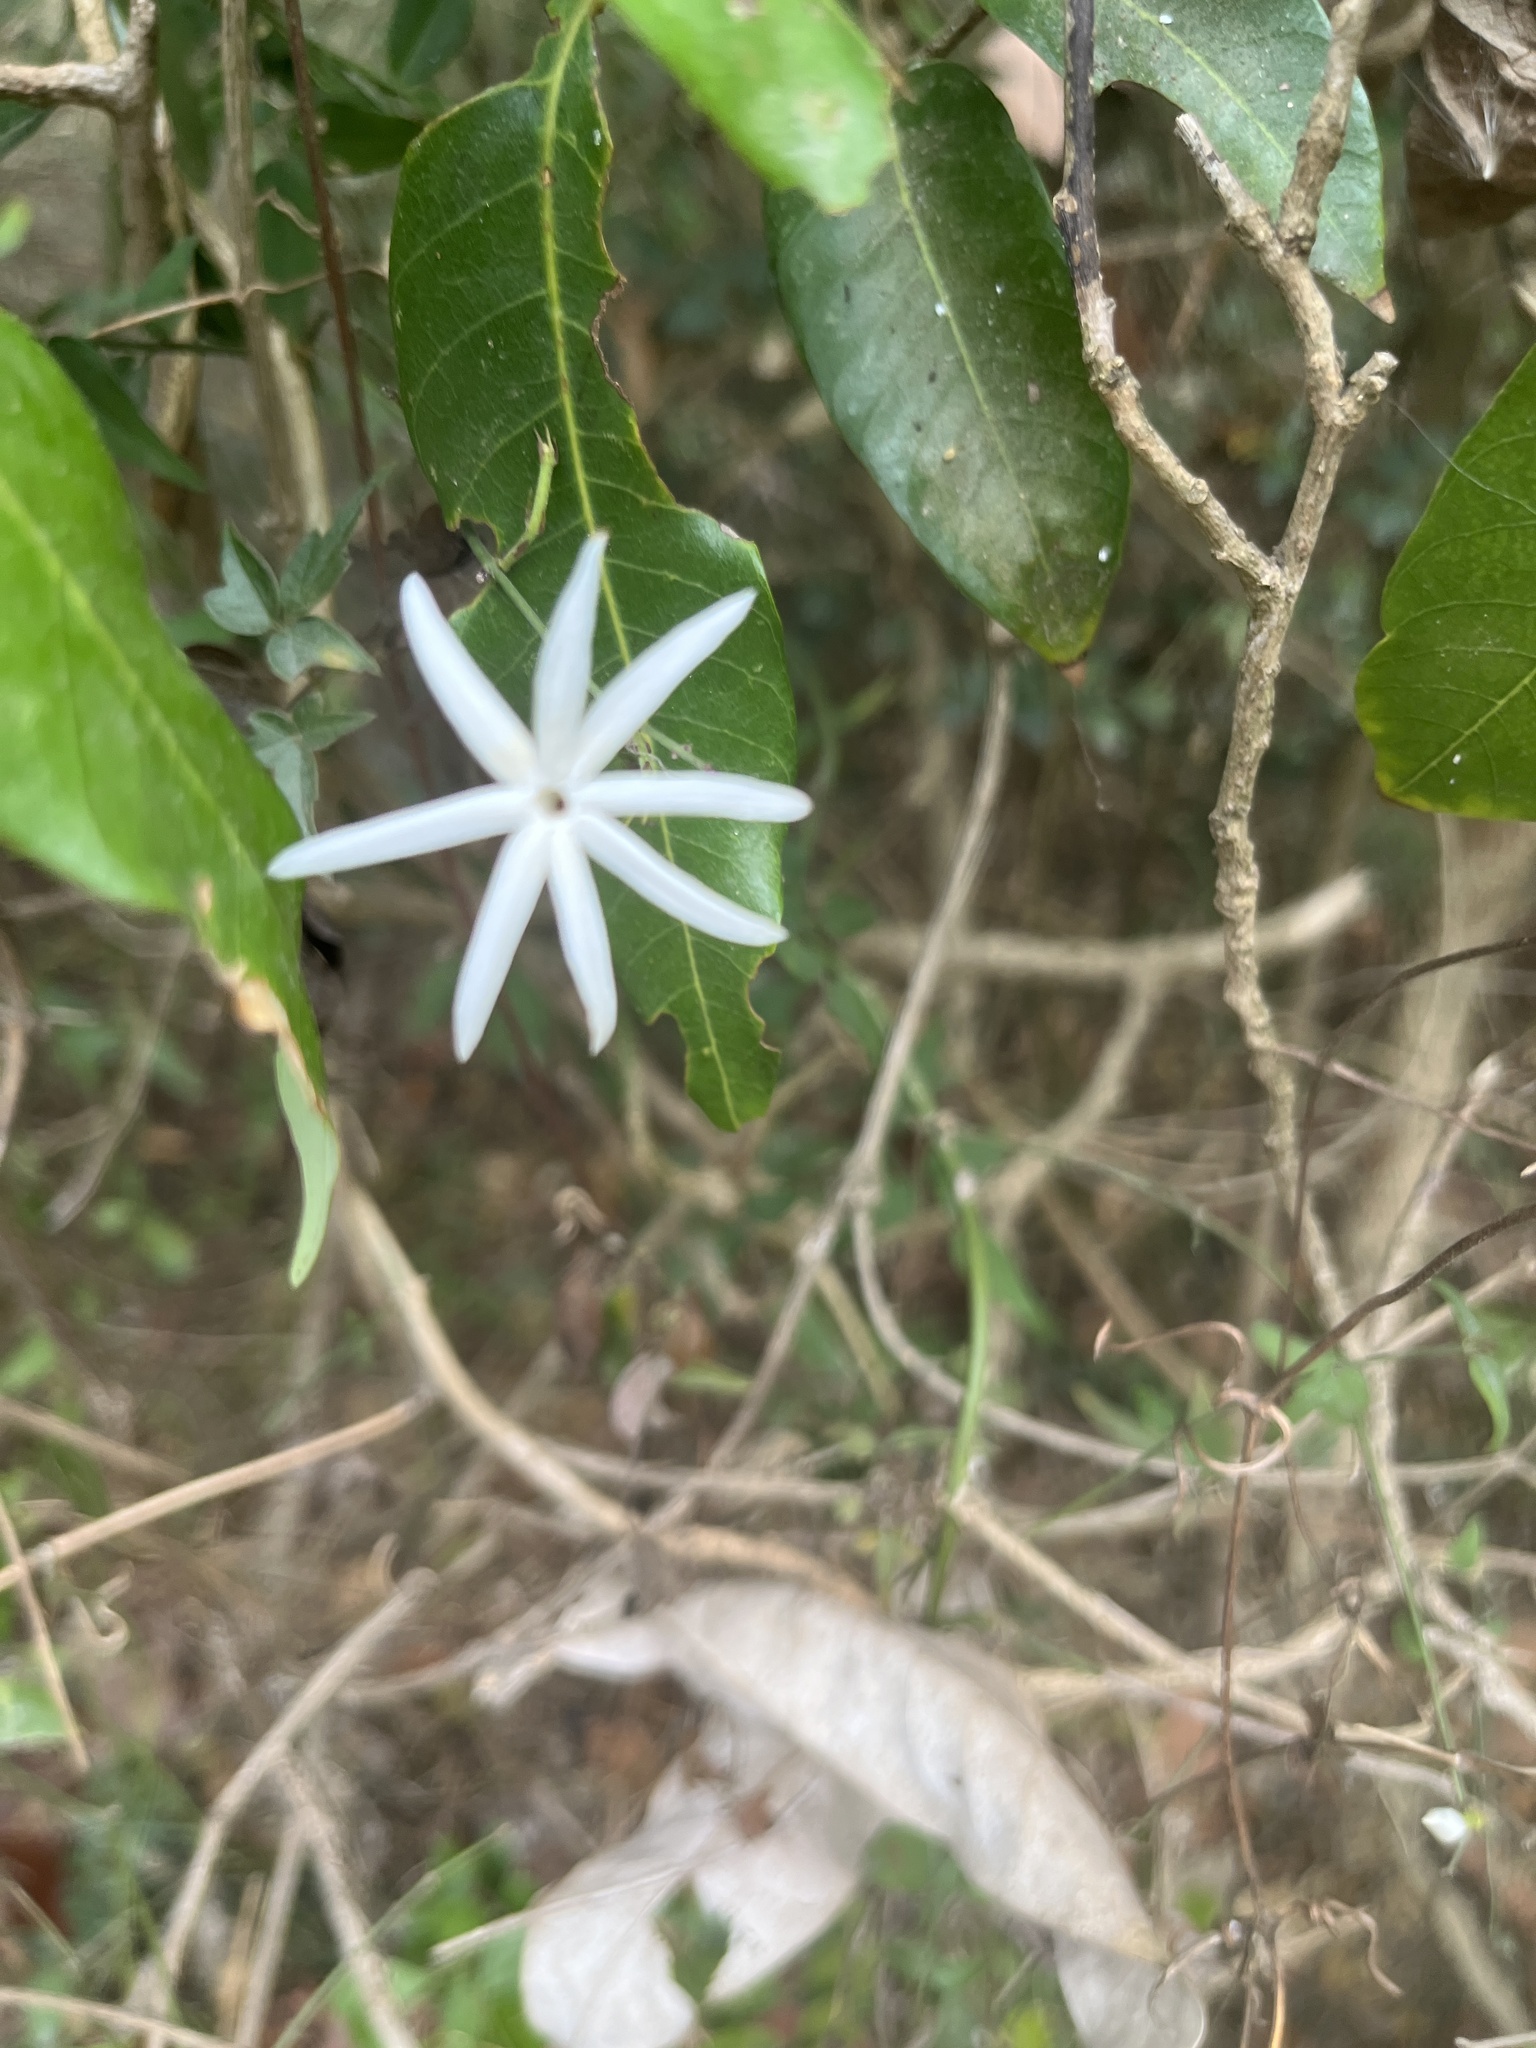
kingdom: Plantae
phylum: Tracheophyta
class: Magnoliopsida
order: Lamiales
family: Oleaceae
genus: Jasminum
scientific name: Jasminum nervosum
